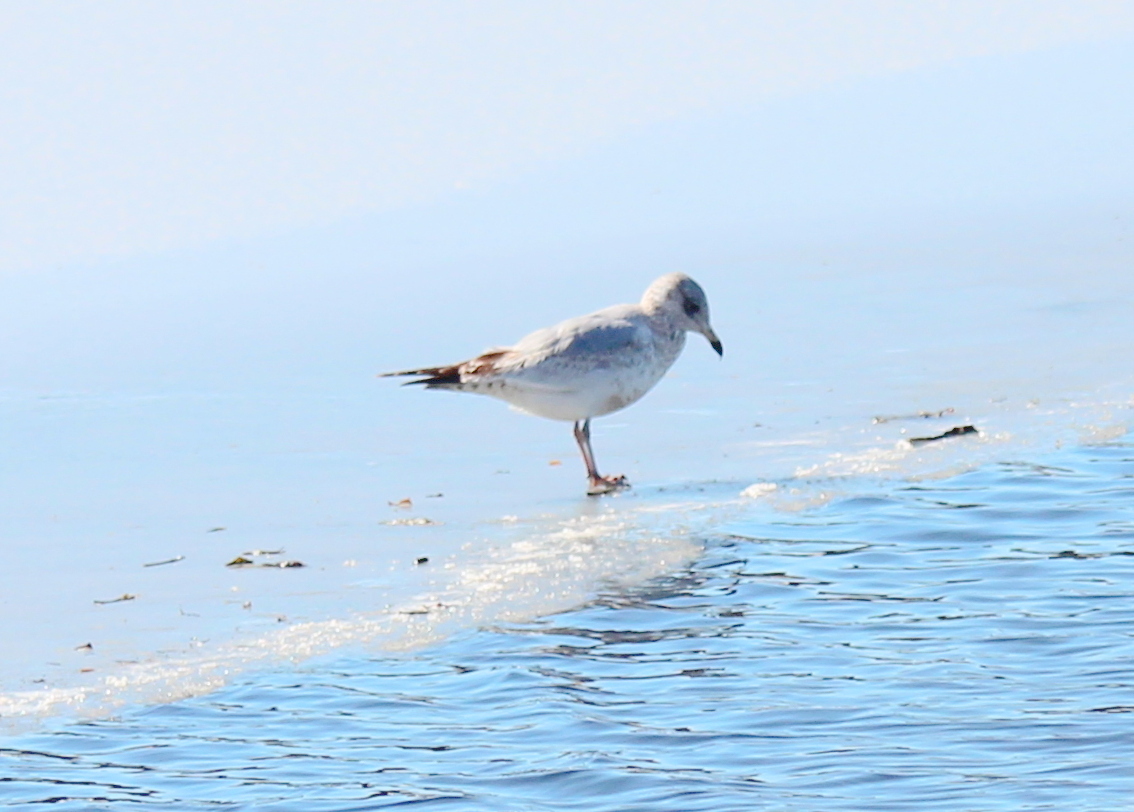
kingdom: Animalia
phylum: Chordata
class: Aves
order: Charadriiformes
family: Laridae
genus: Larus
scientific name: Larus delawarensis
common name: Ring-billed gull
